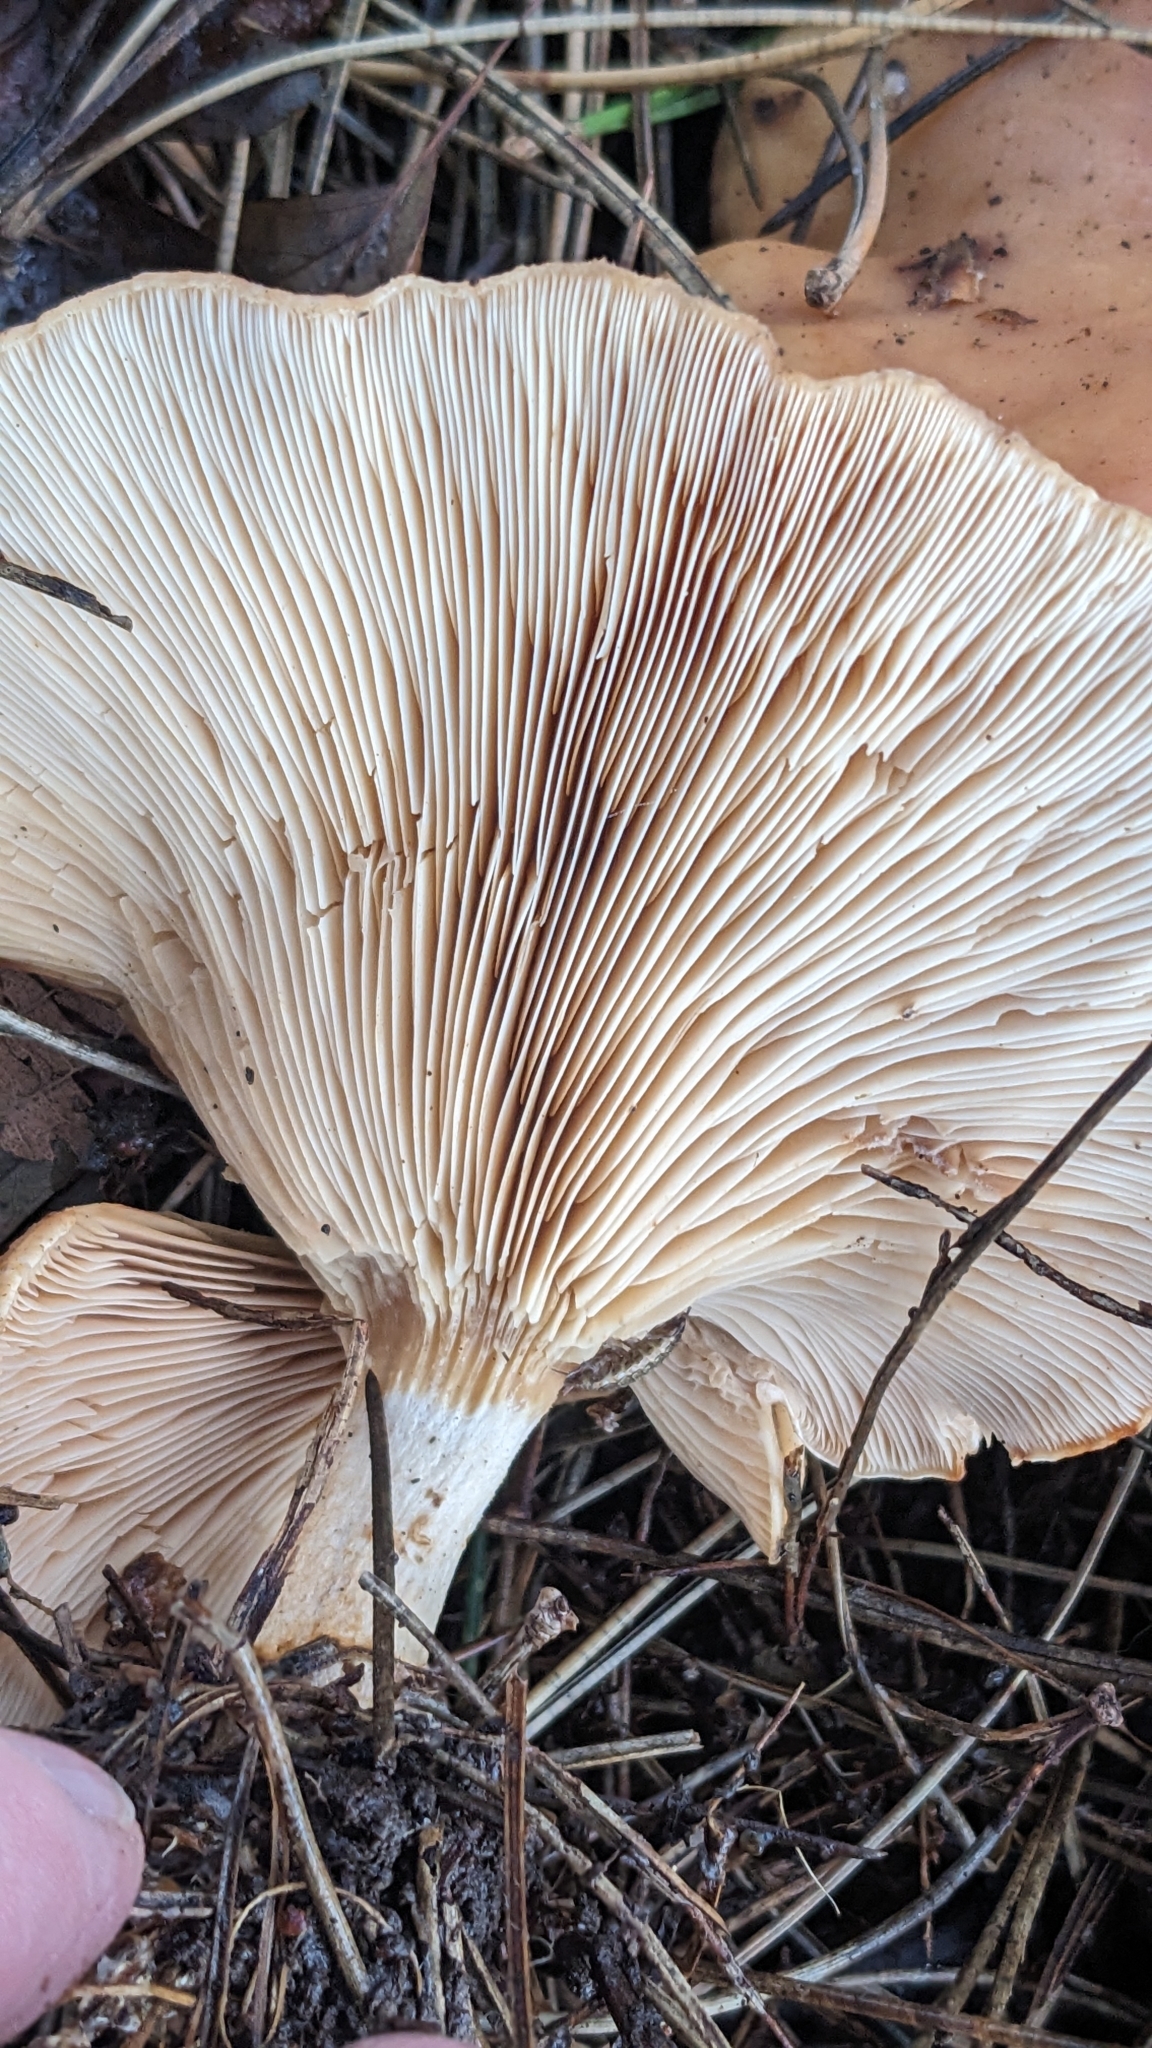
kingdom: Fungi
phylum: Basidiomycota
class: Agaricomycetes
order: Agaricales
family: Tricholomataceae
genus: Paralepista
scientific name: Paralepista flaccida
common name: Tawny funnel cap
